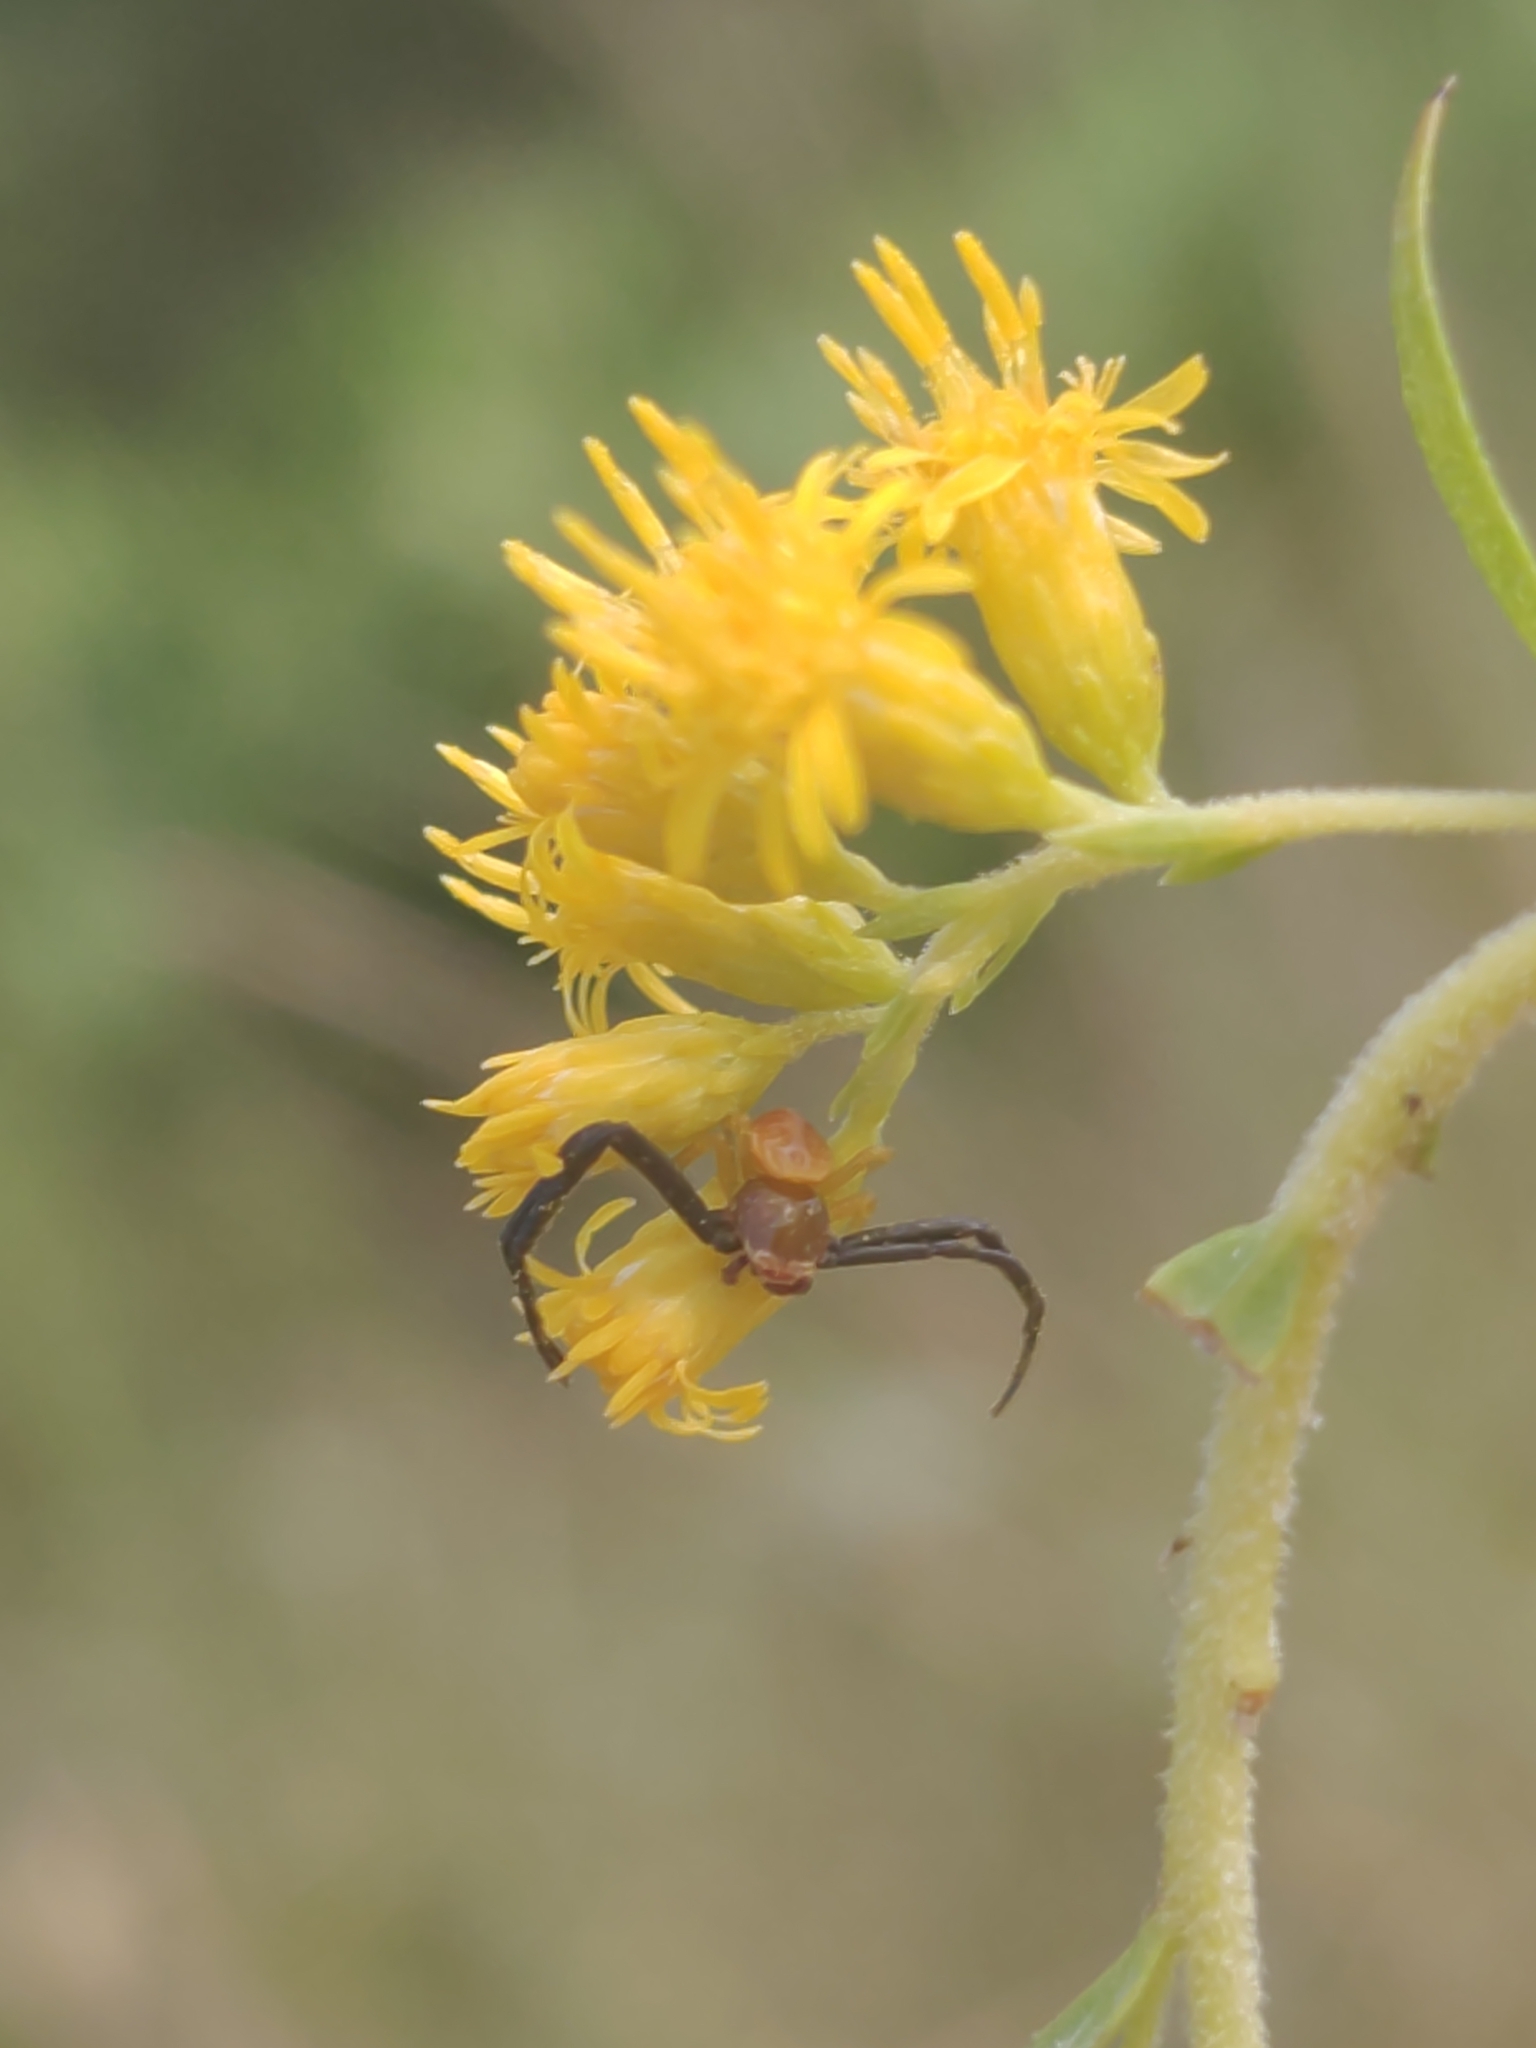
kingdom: Animalia
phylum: Arthropoda
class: Arachnida
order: Araneae
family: Thomisidae
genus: Misumenoides
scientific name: Misumenoides formosipes
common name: White-banded crab spider
